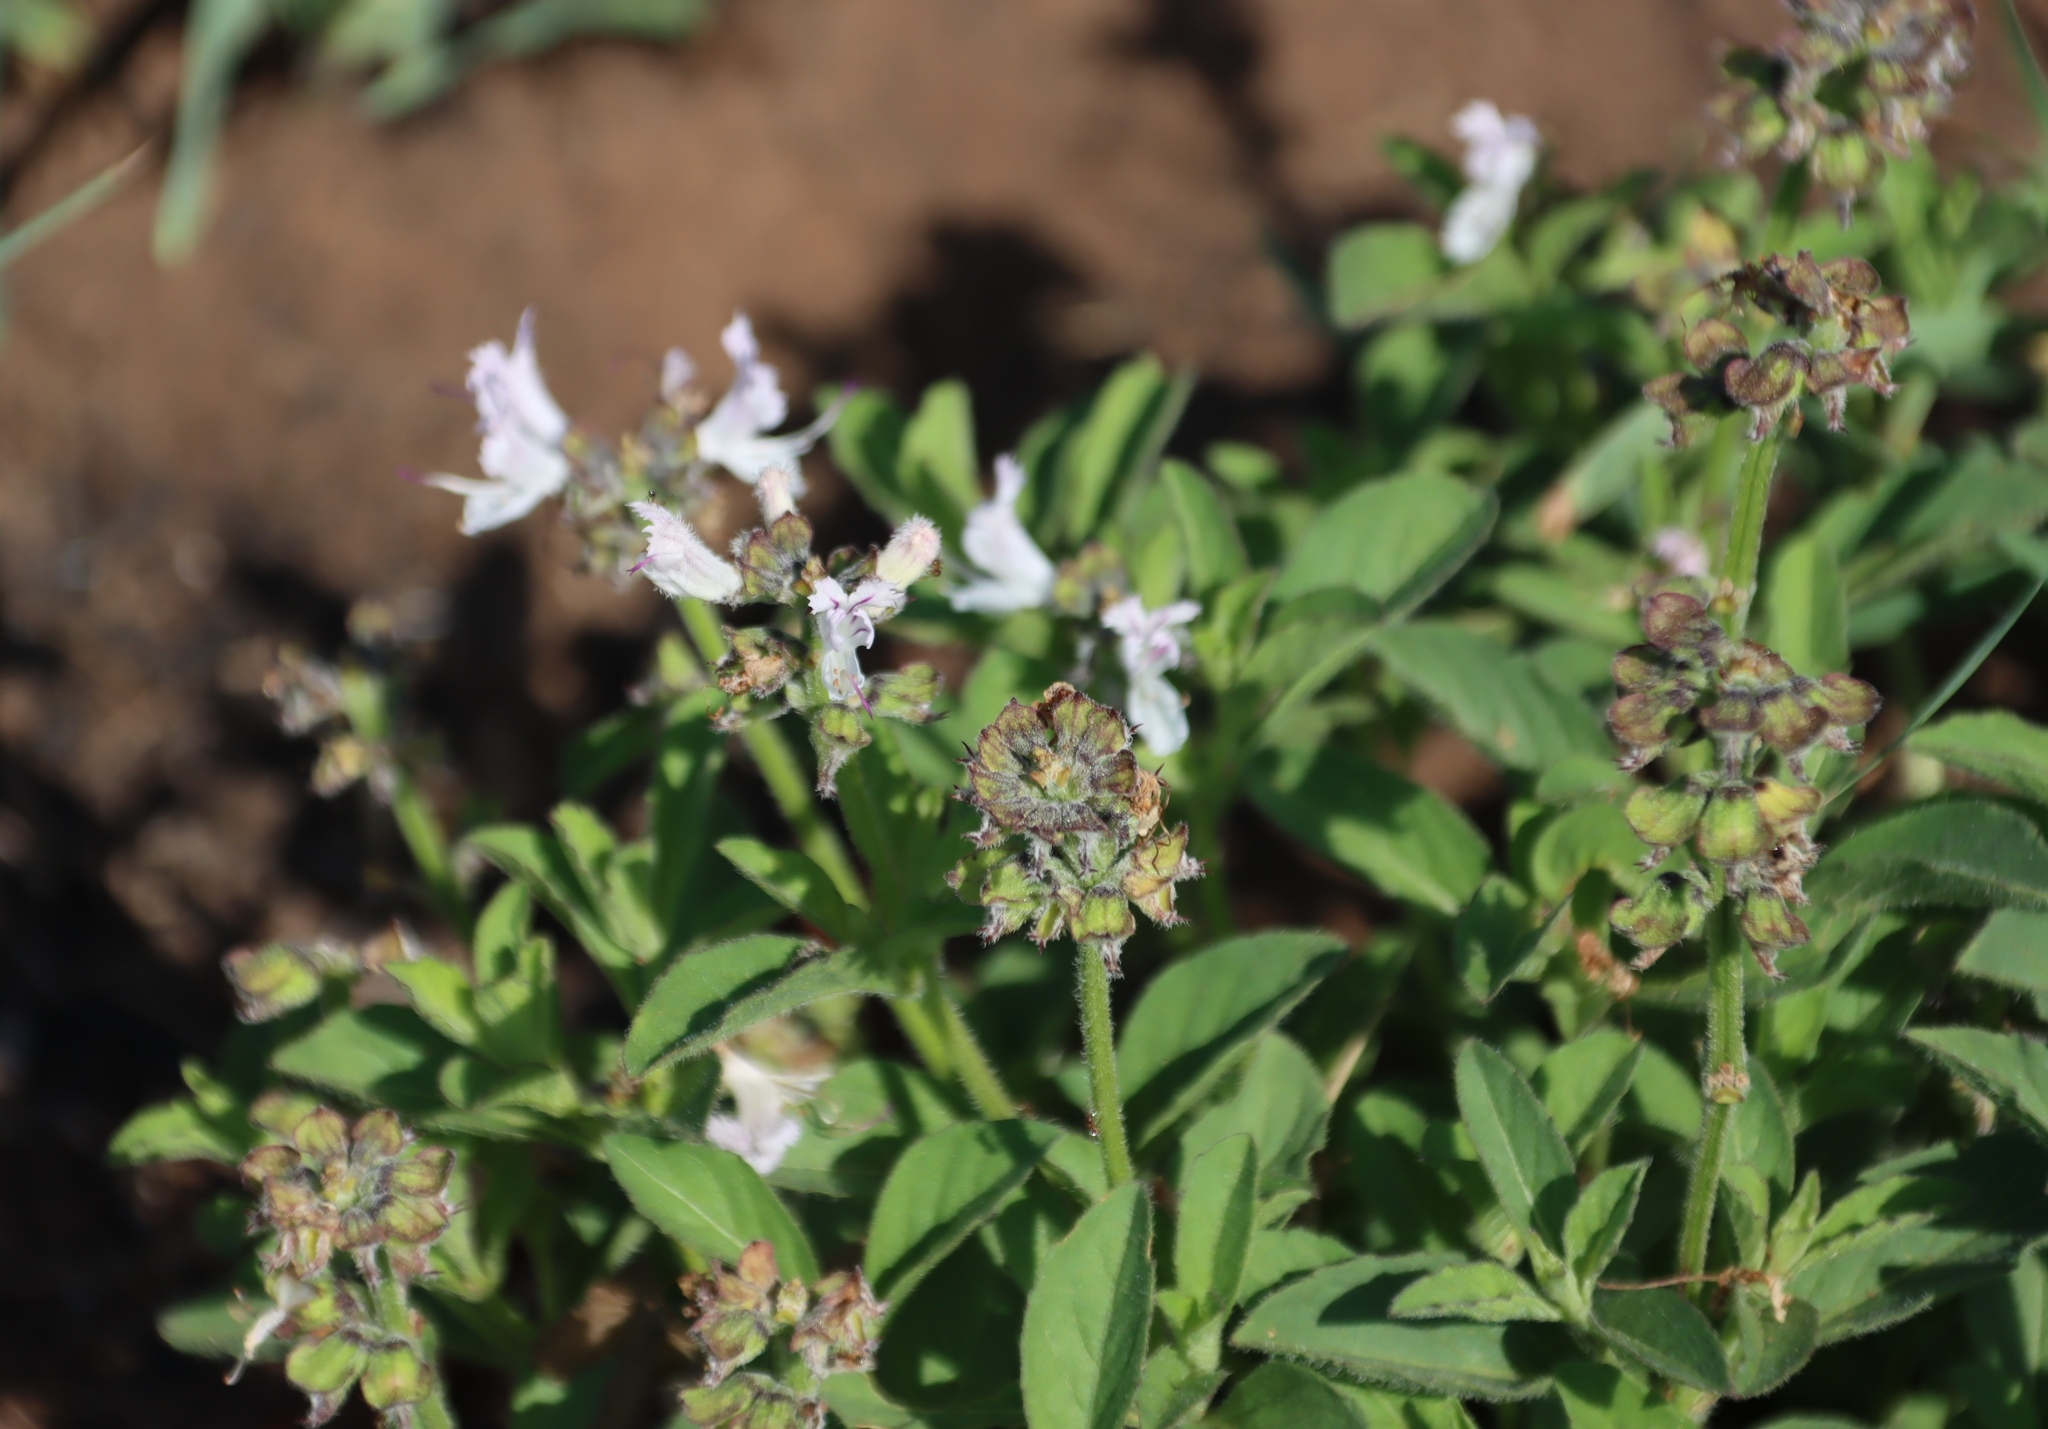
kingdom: Plantae
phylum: Tracheophyta
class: Magnoliopsida
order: Lamiales
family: Lamiaceae
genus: Ocimum
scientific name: Ocimum obovatum
